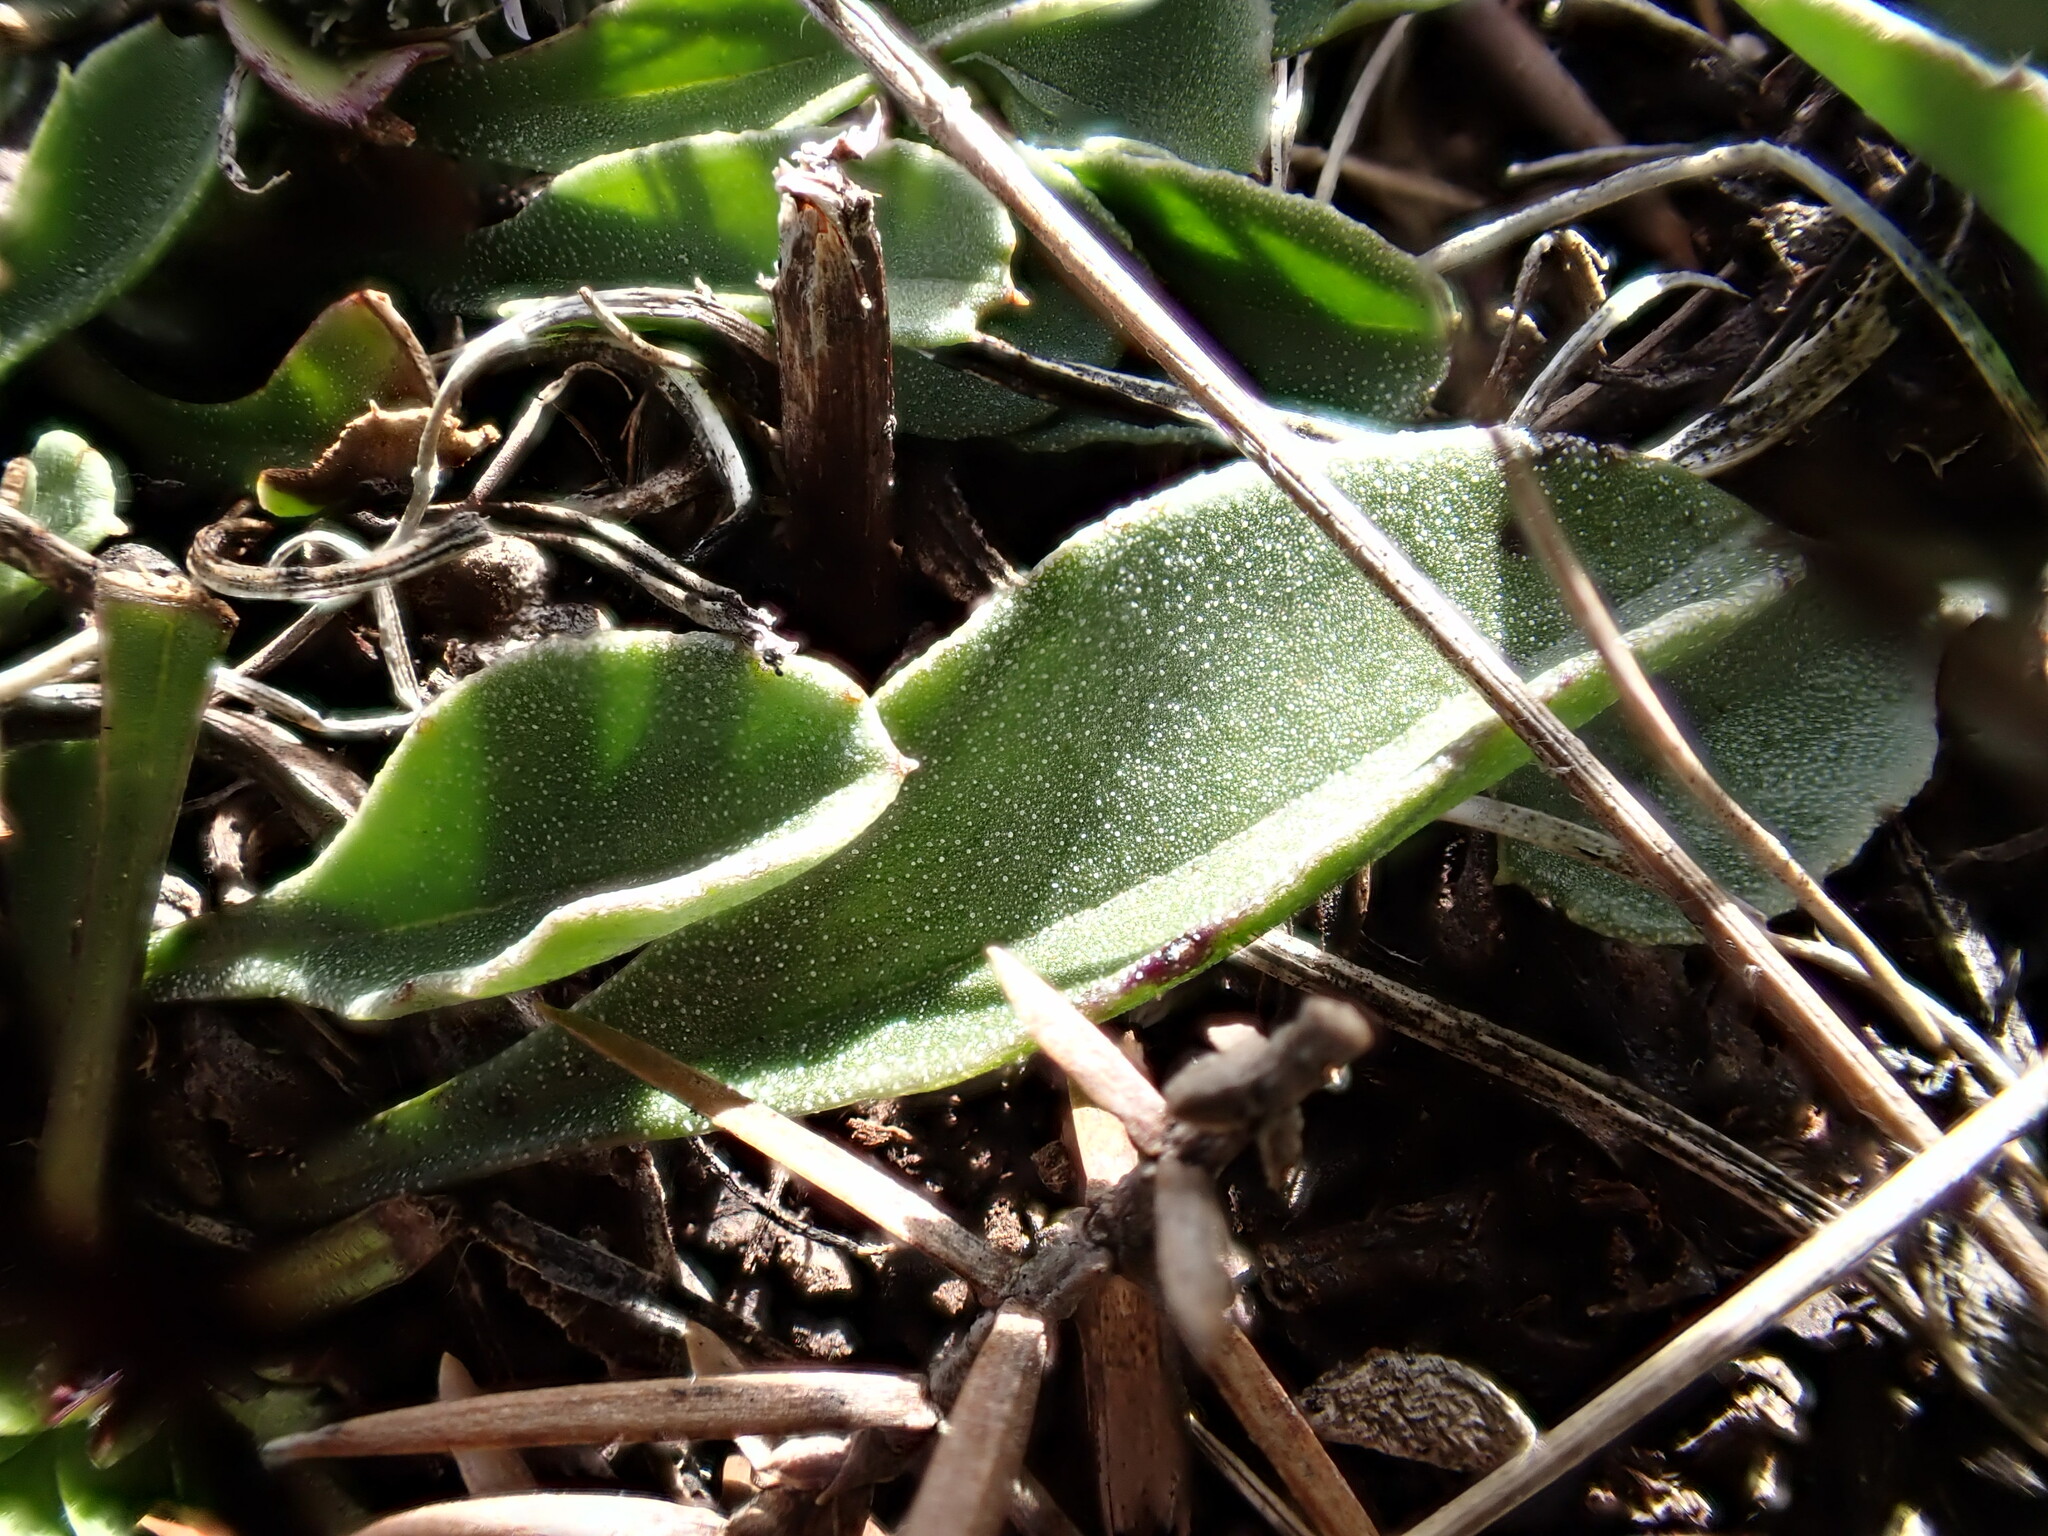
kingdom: Plantae
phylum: Tracheophyta
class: Magnoliopsida
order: Lamiales
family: Plantaginaceae
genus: Globularia
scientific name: Globularia vulgaris
